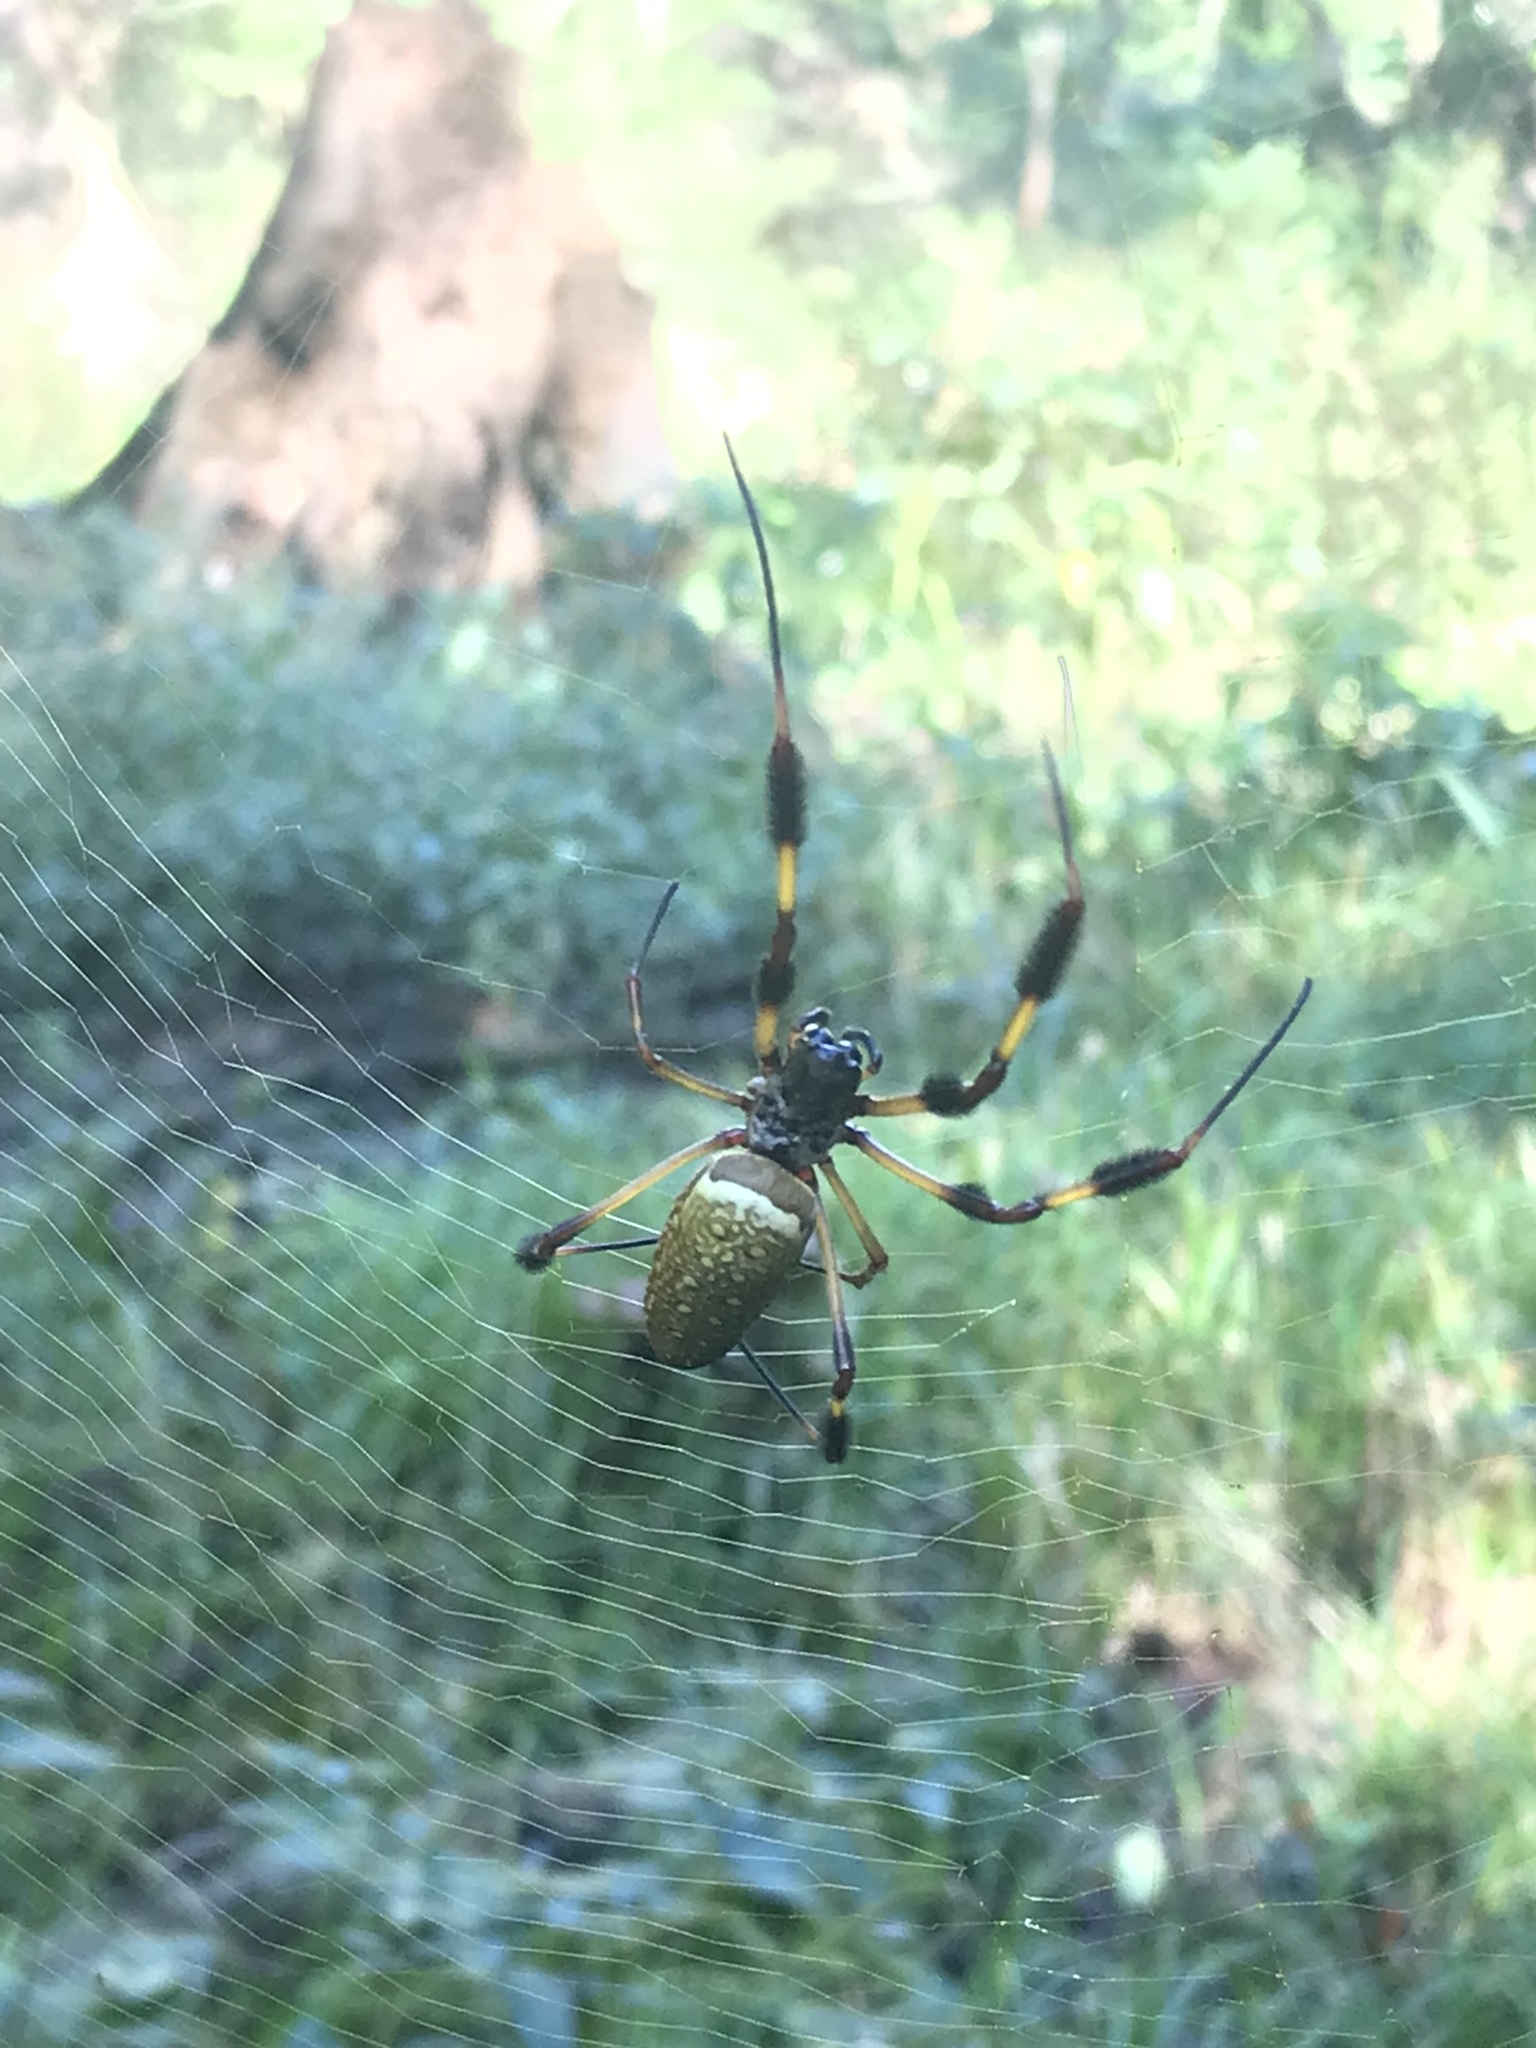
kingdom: Animalia
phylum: Arthropoda
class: Arachnida
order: Araneae
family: Araneidae
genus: Trichonephila
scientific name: Trichonephila clavipes
